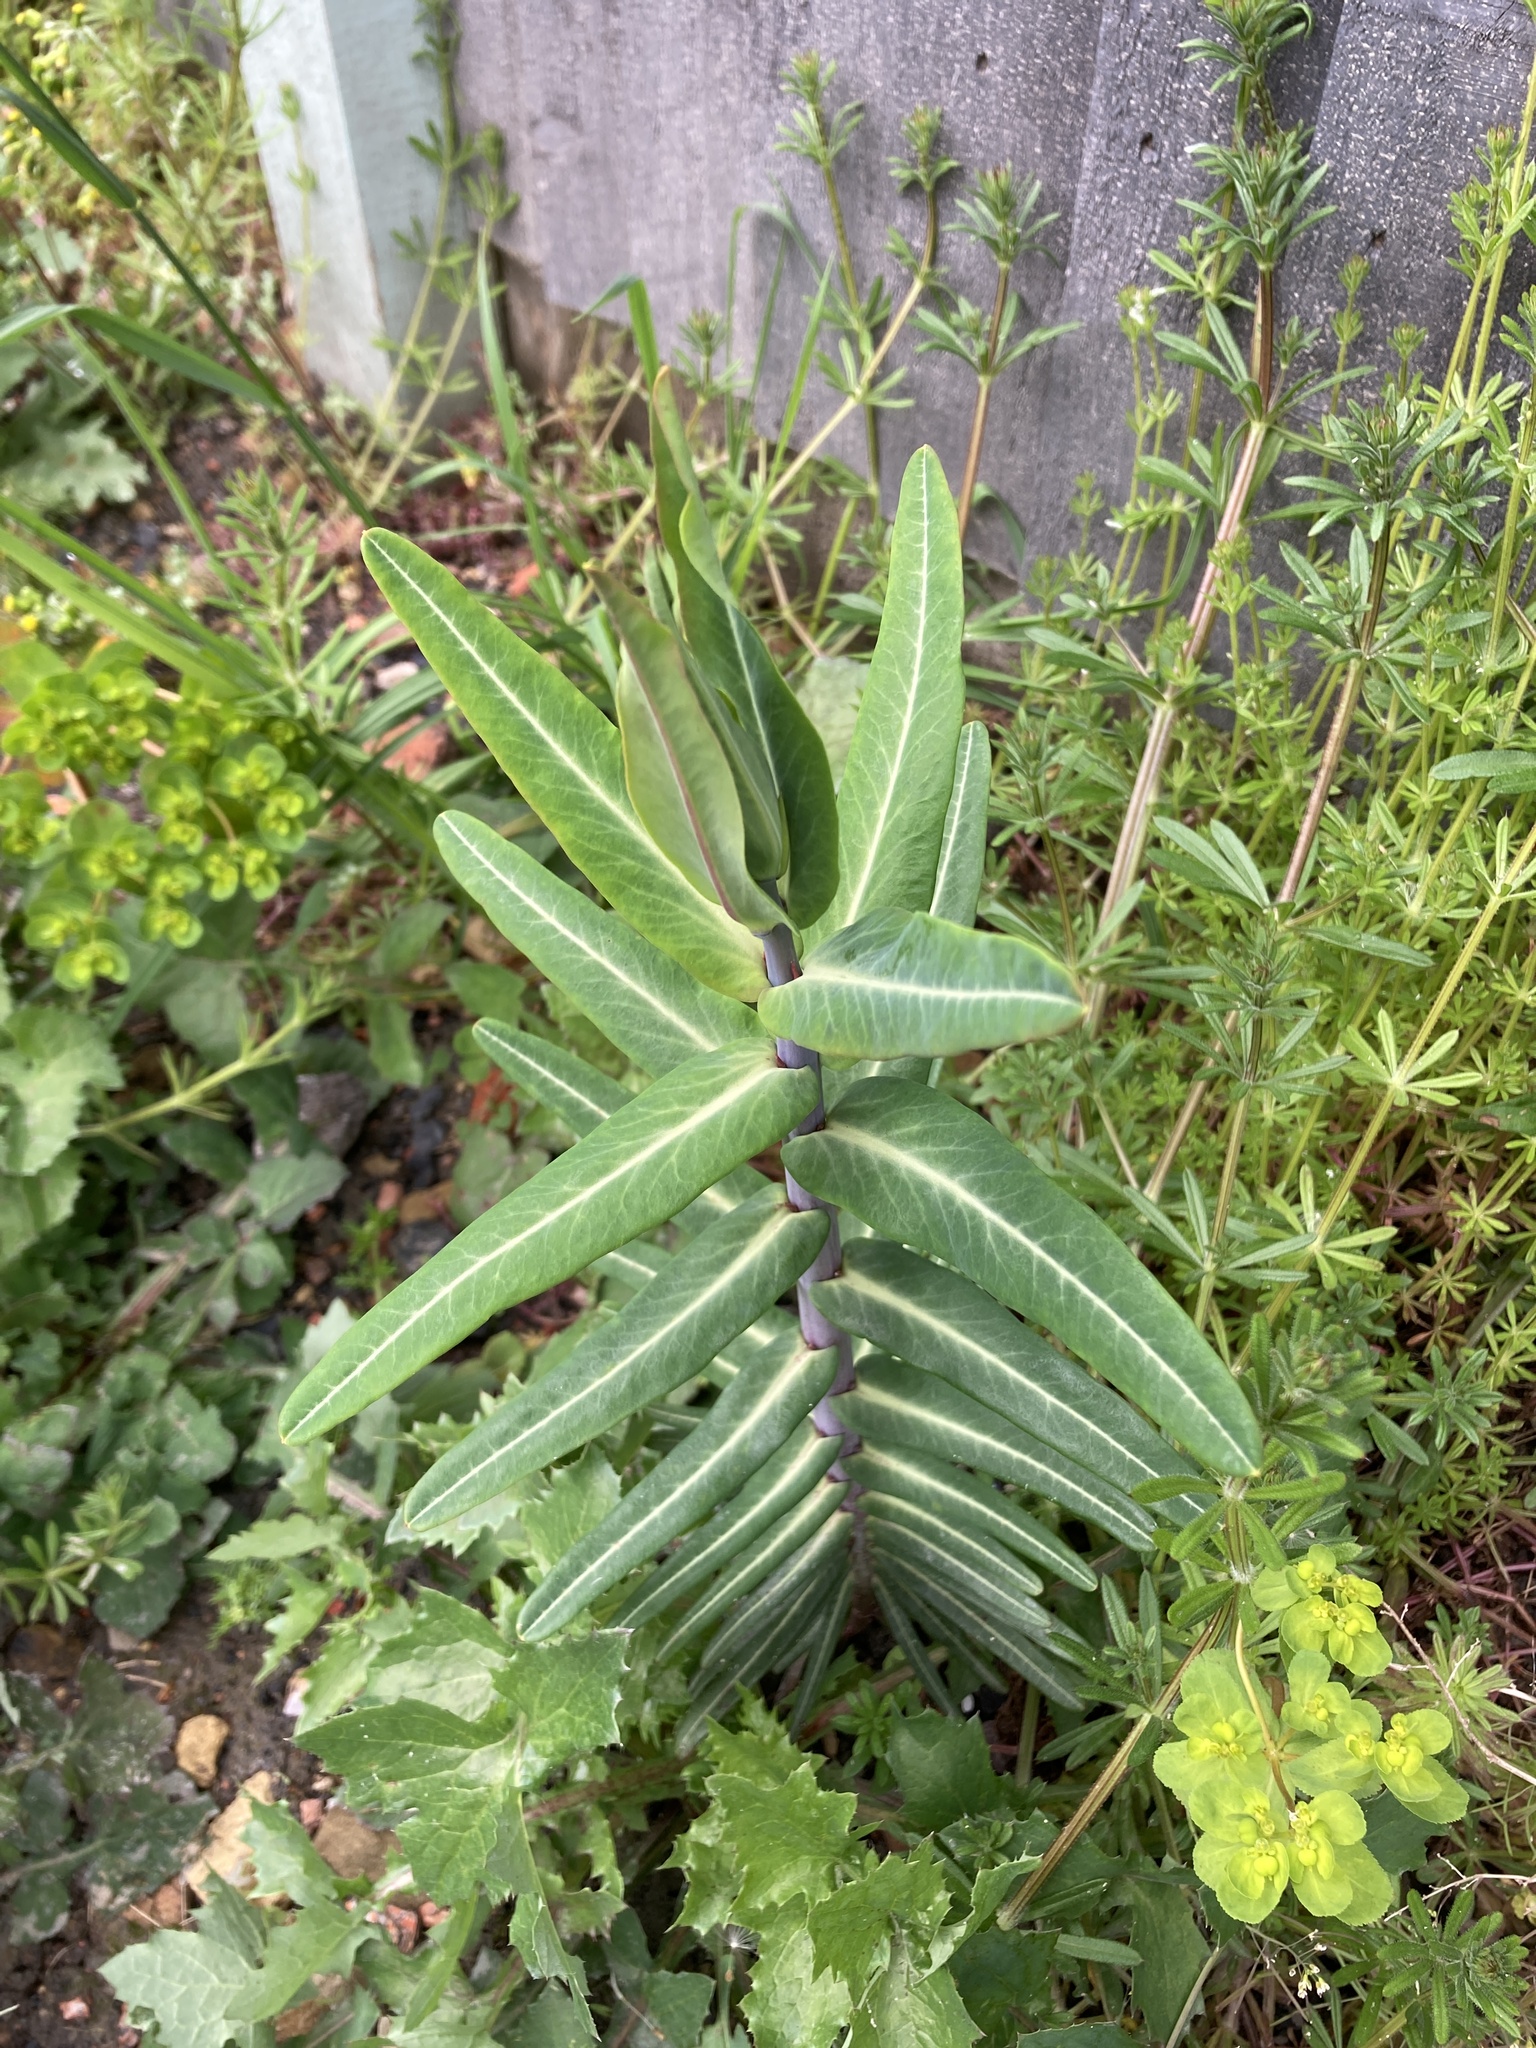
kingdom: Plantae
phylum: Tracheophyta
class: Magnoliopsida
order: Malpighiales
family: Euphorbiaceae
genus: Euphorbia
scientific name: Euphorbia lathyris
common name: Caper spurge
